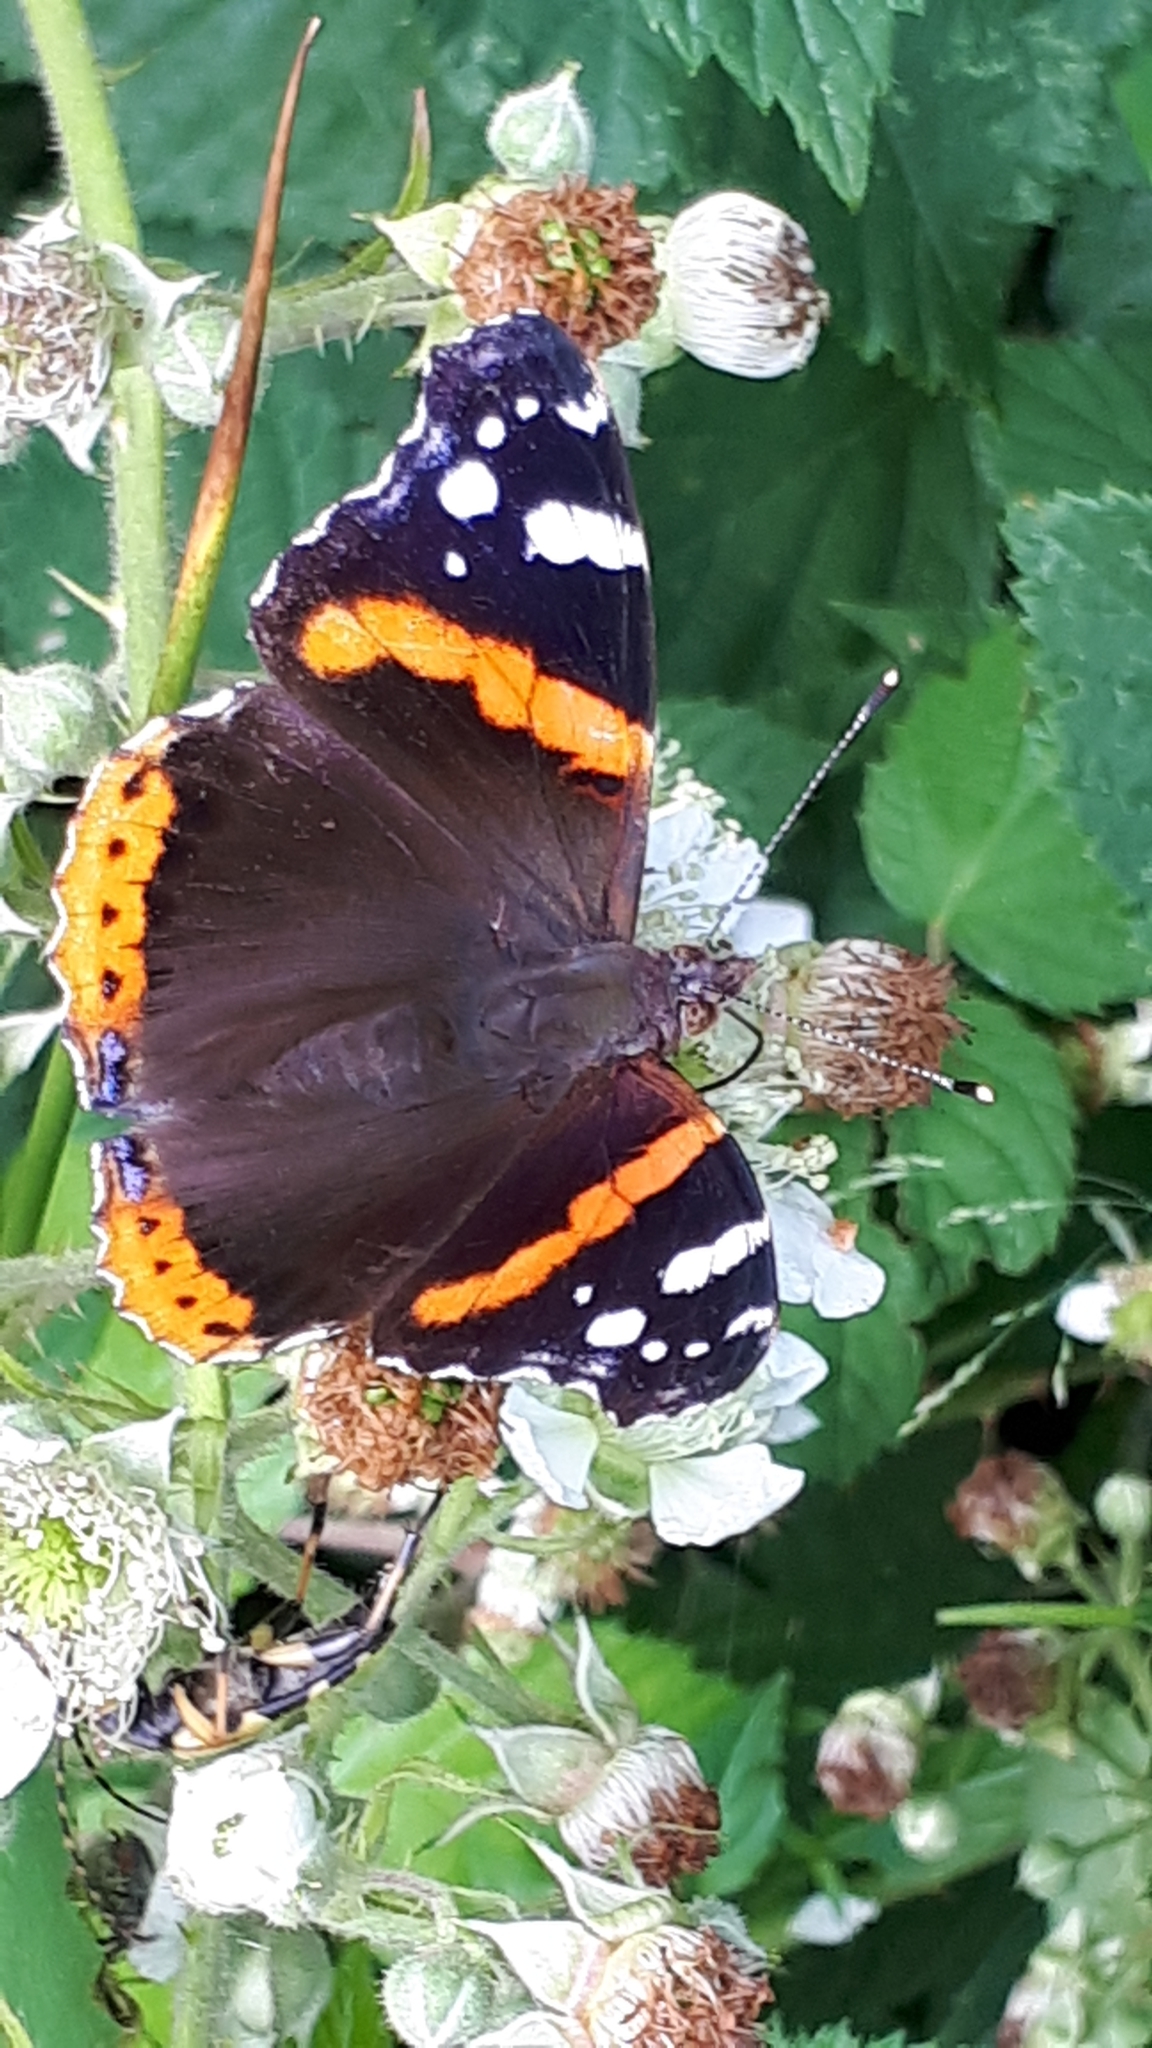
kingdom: Animalia
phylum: Arthropoda
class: Insecta
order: Lepidoptera
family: Nymphalidae
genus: Vanessa
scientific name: Vanessa atalanta
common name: Red admiral
